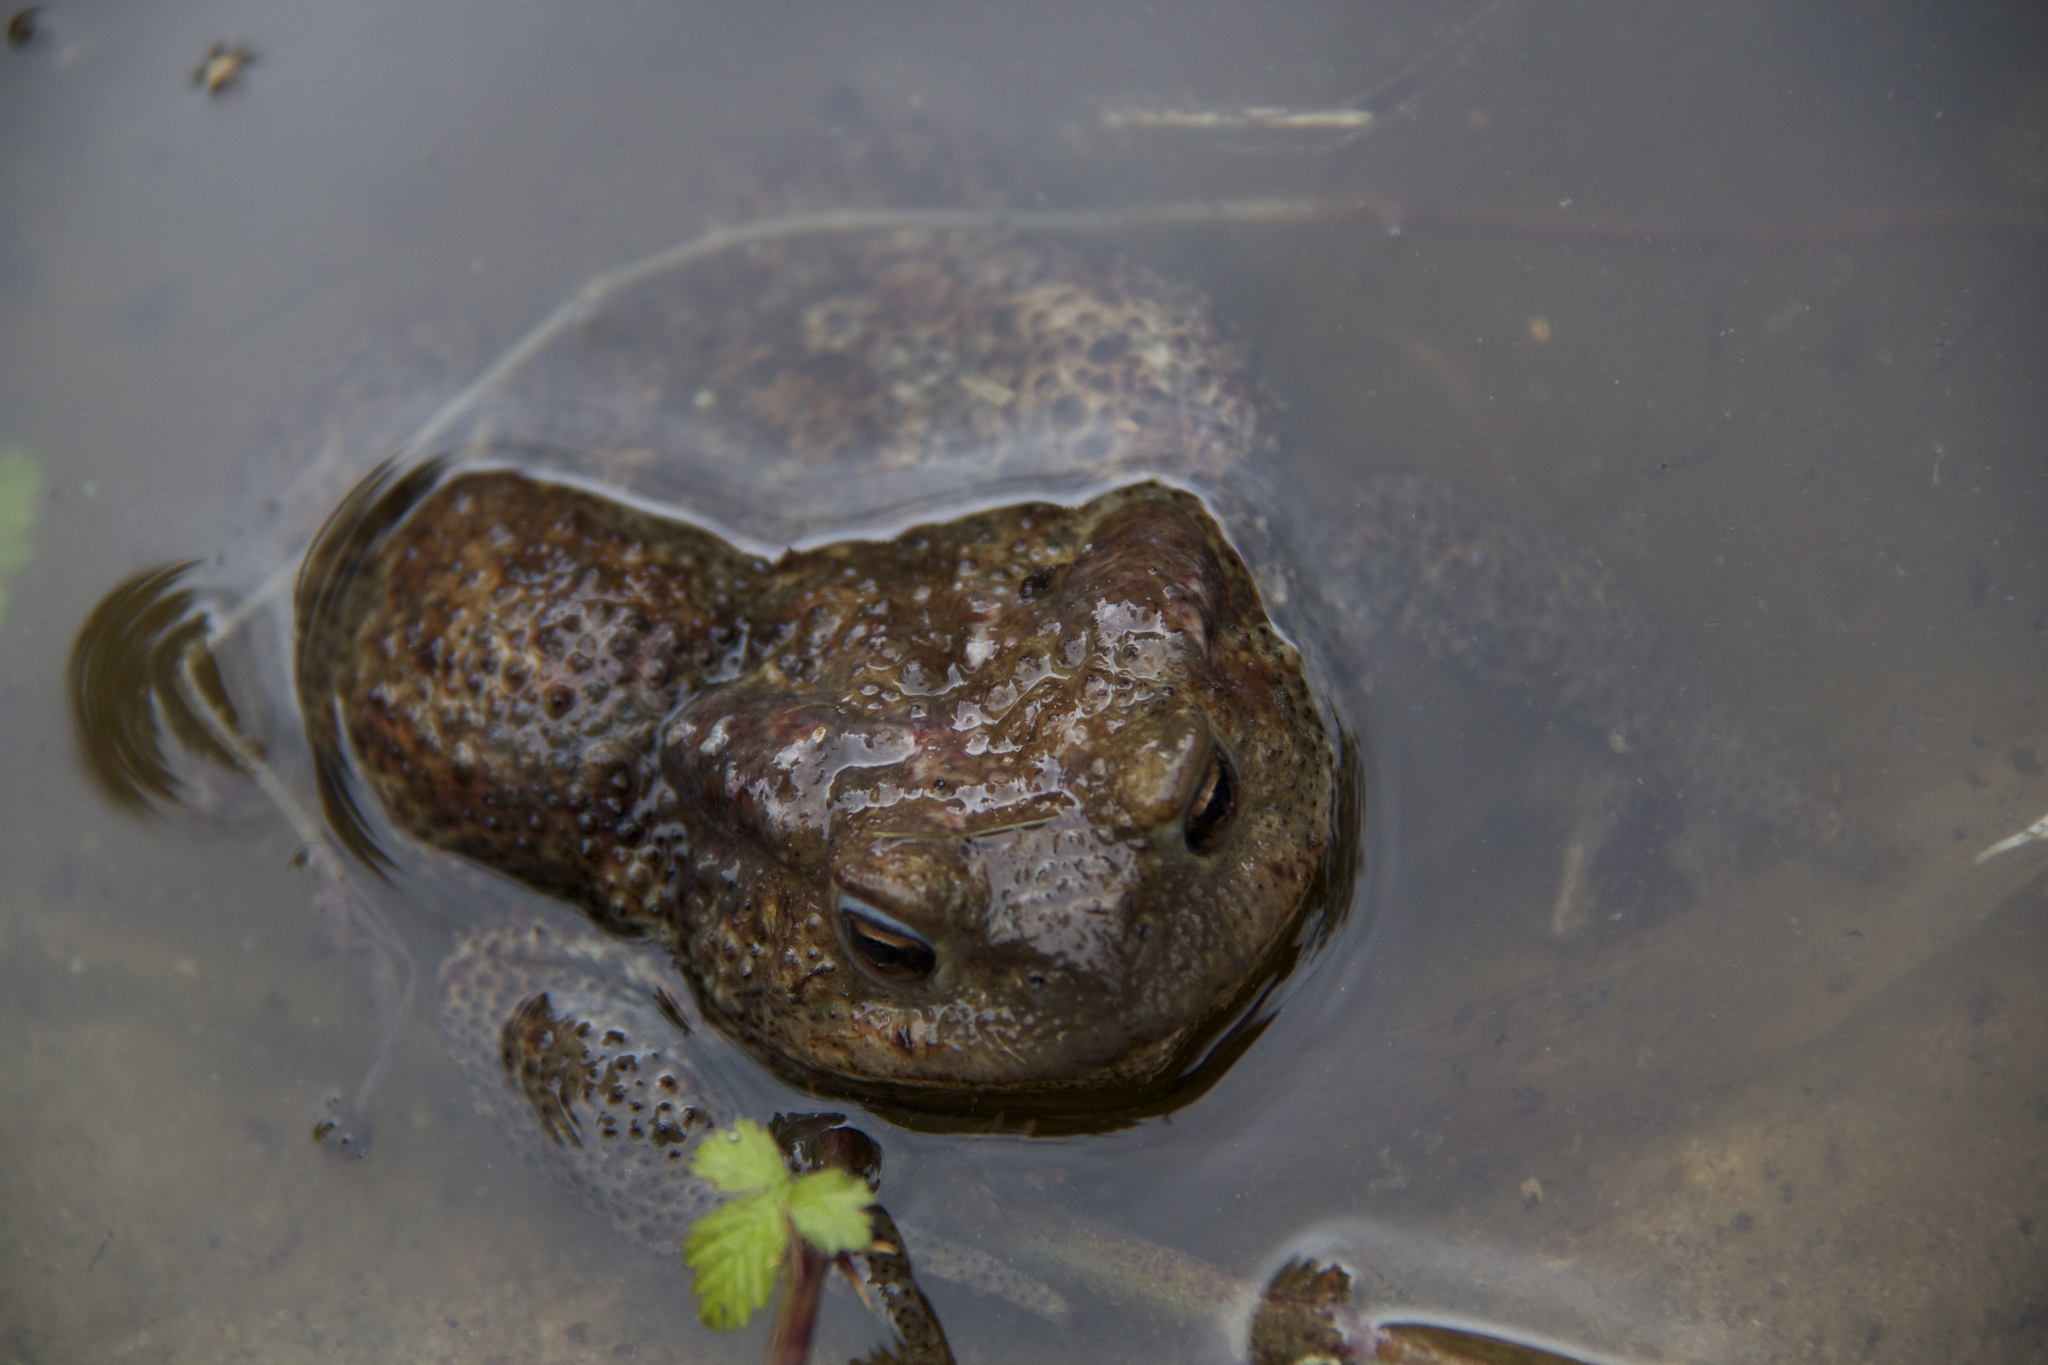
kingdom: Animalia
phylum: Chordata
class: Amphibia
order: Anura
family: Bufonidae
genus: Bufo
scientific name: Bufo bufo
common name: Common toad
